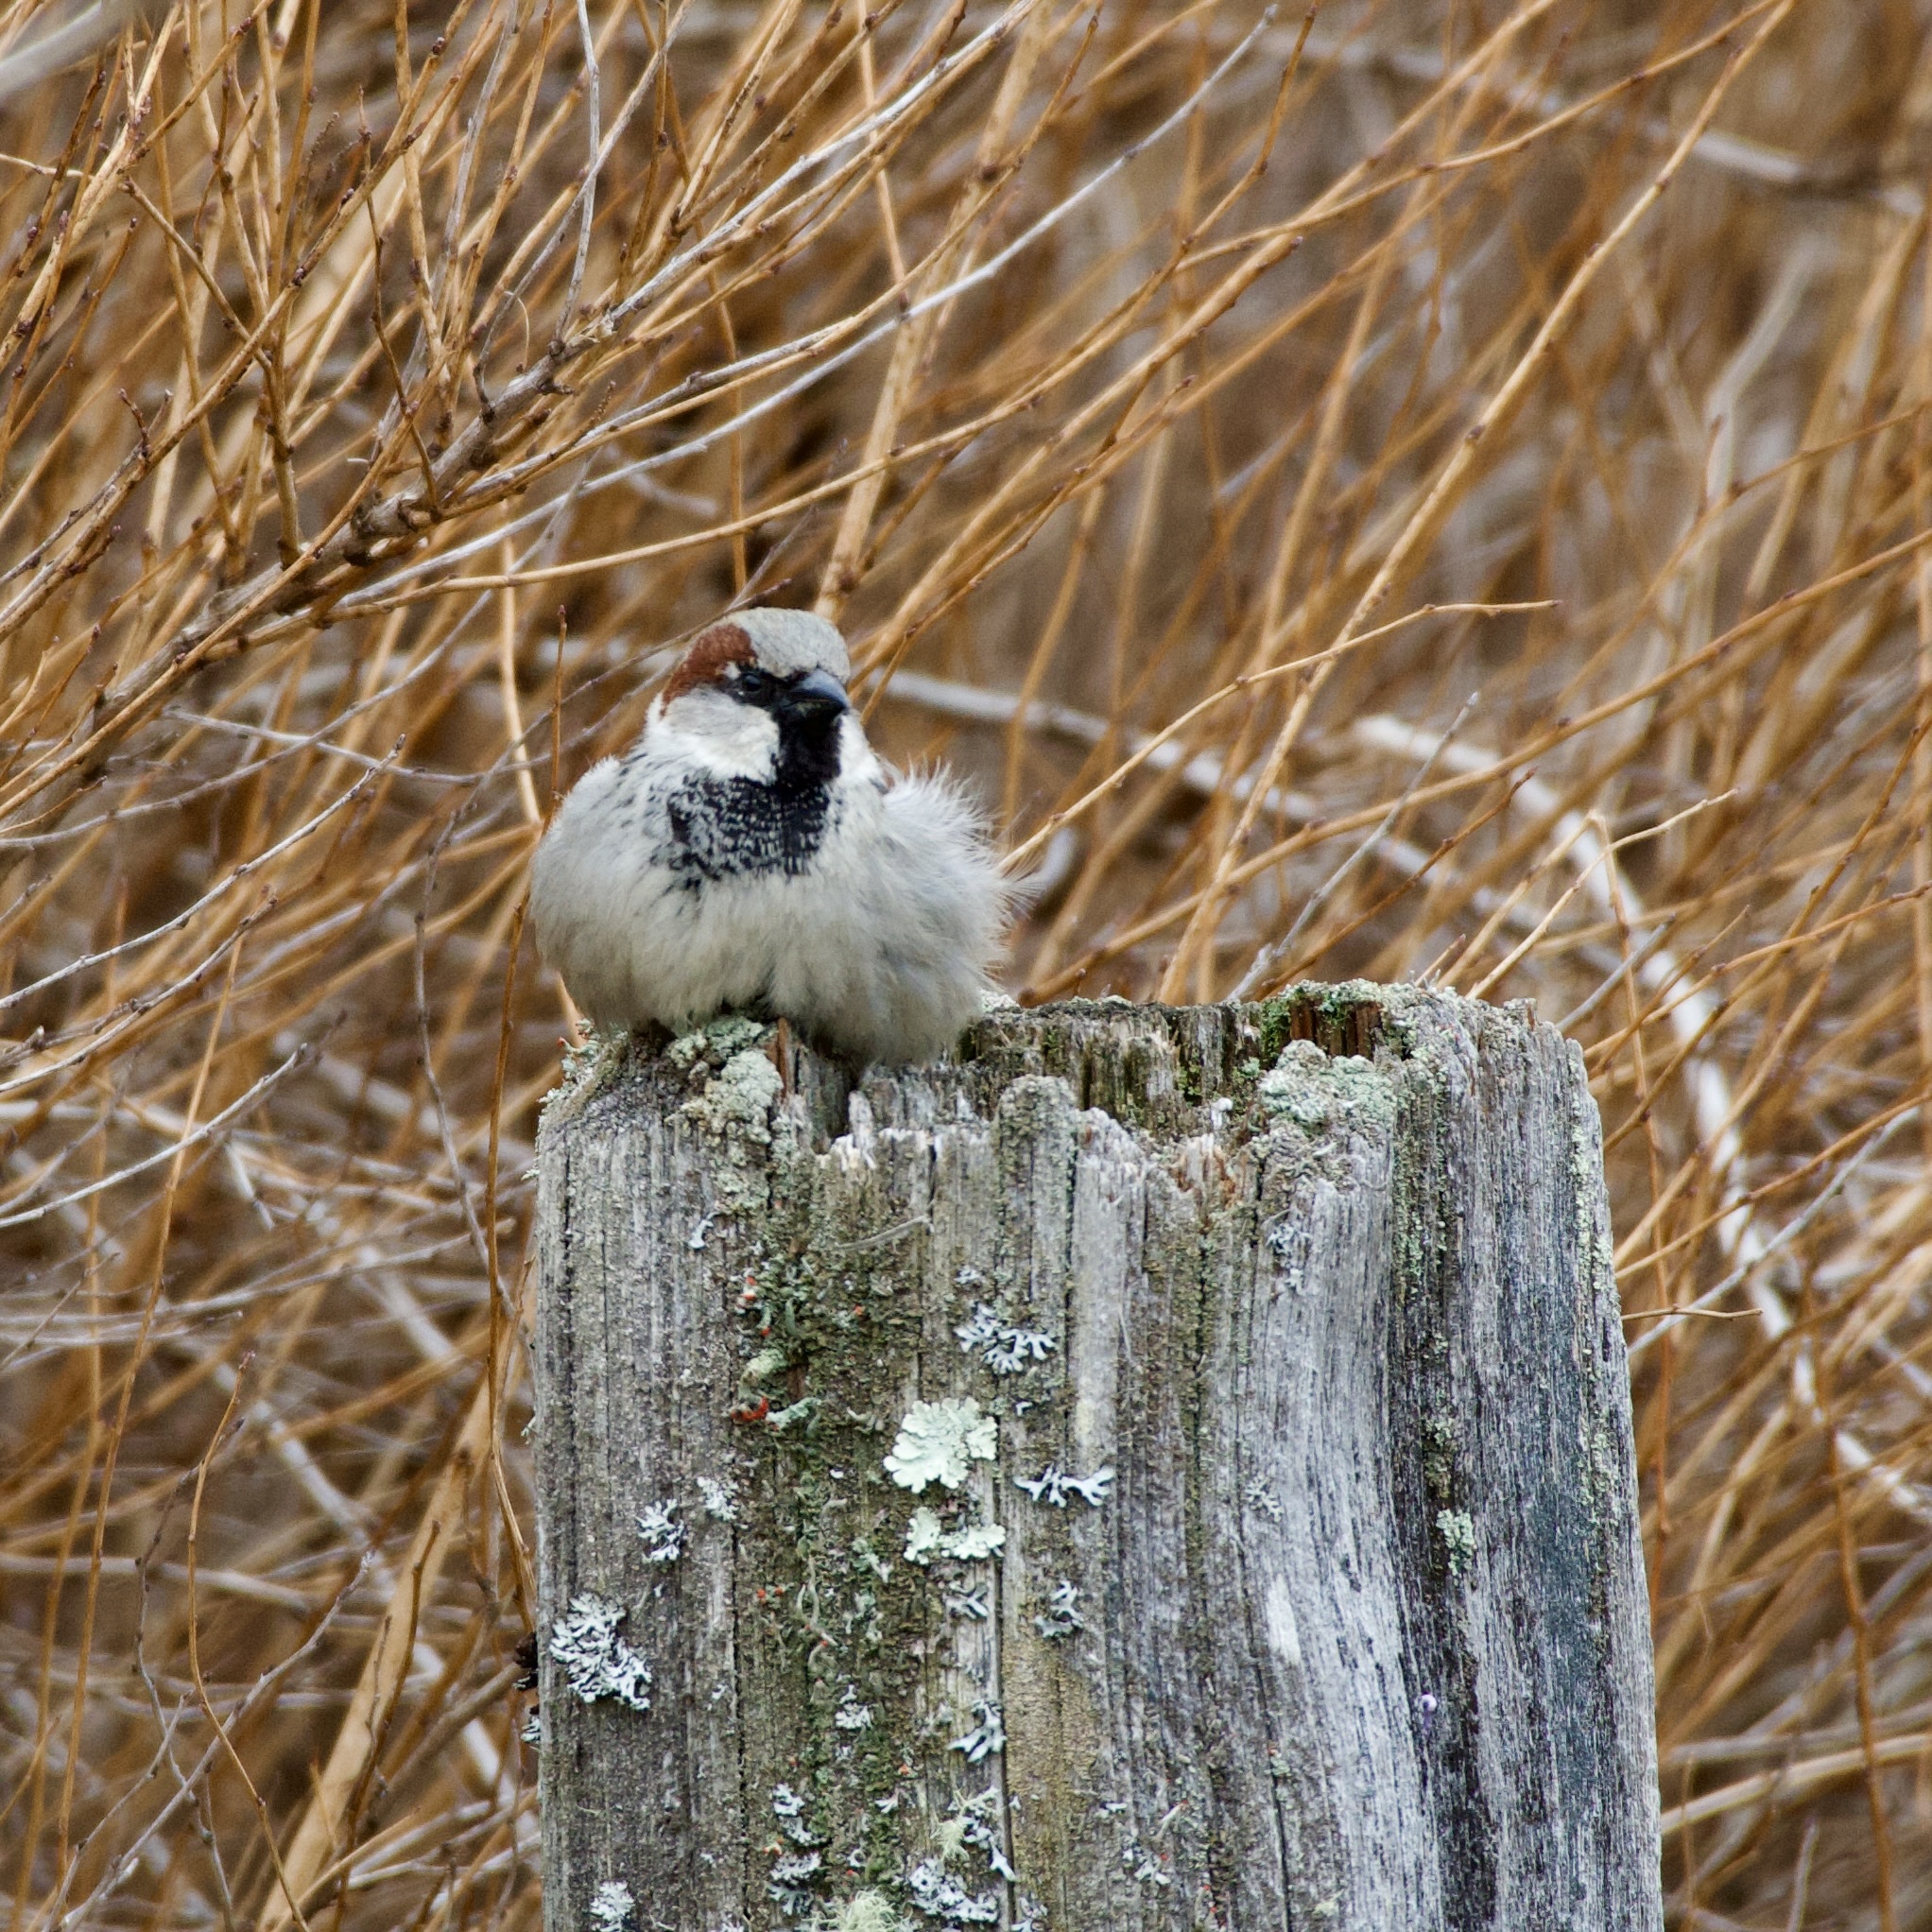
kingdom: Animalia
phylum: Chordata
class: Aves
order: Passeriformes
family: Passeridae
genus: Passer
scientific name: Passer domesticus
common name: House sparrow
